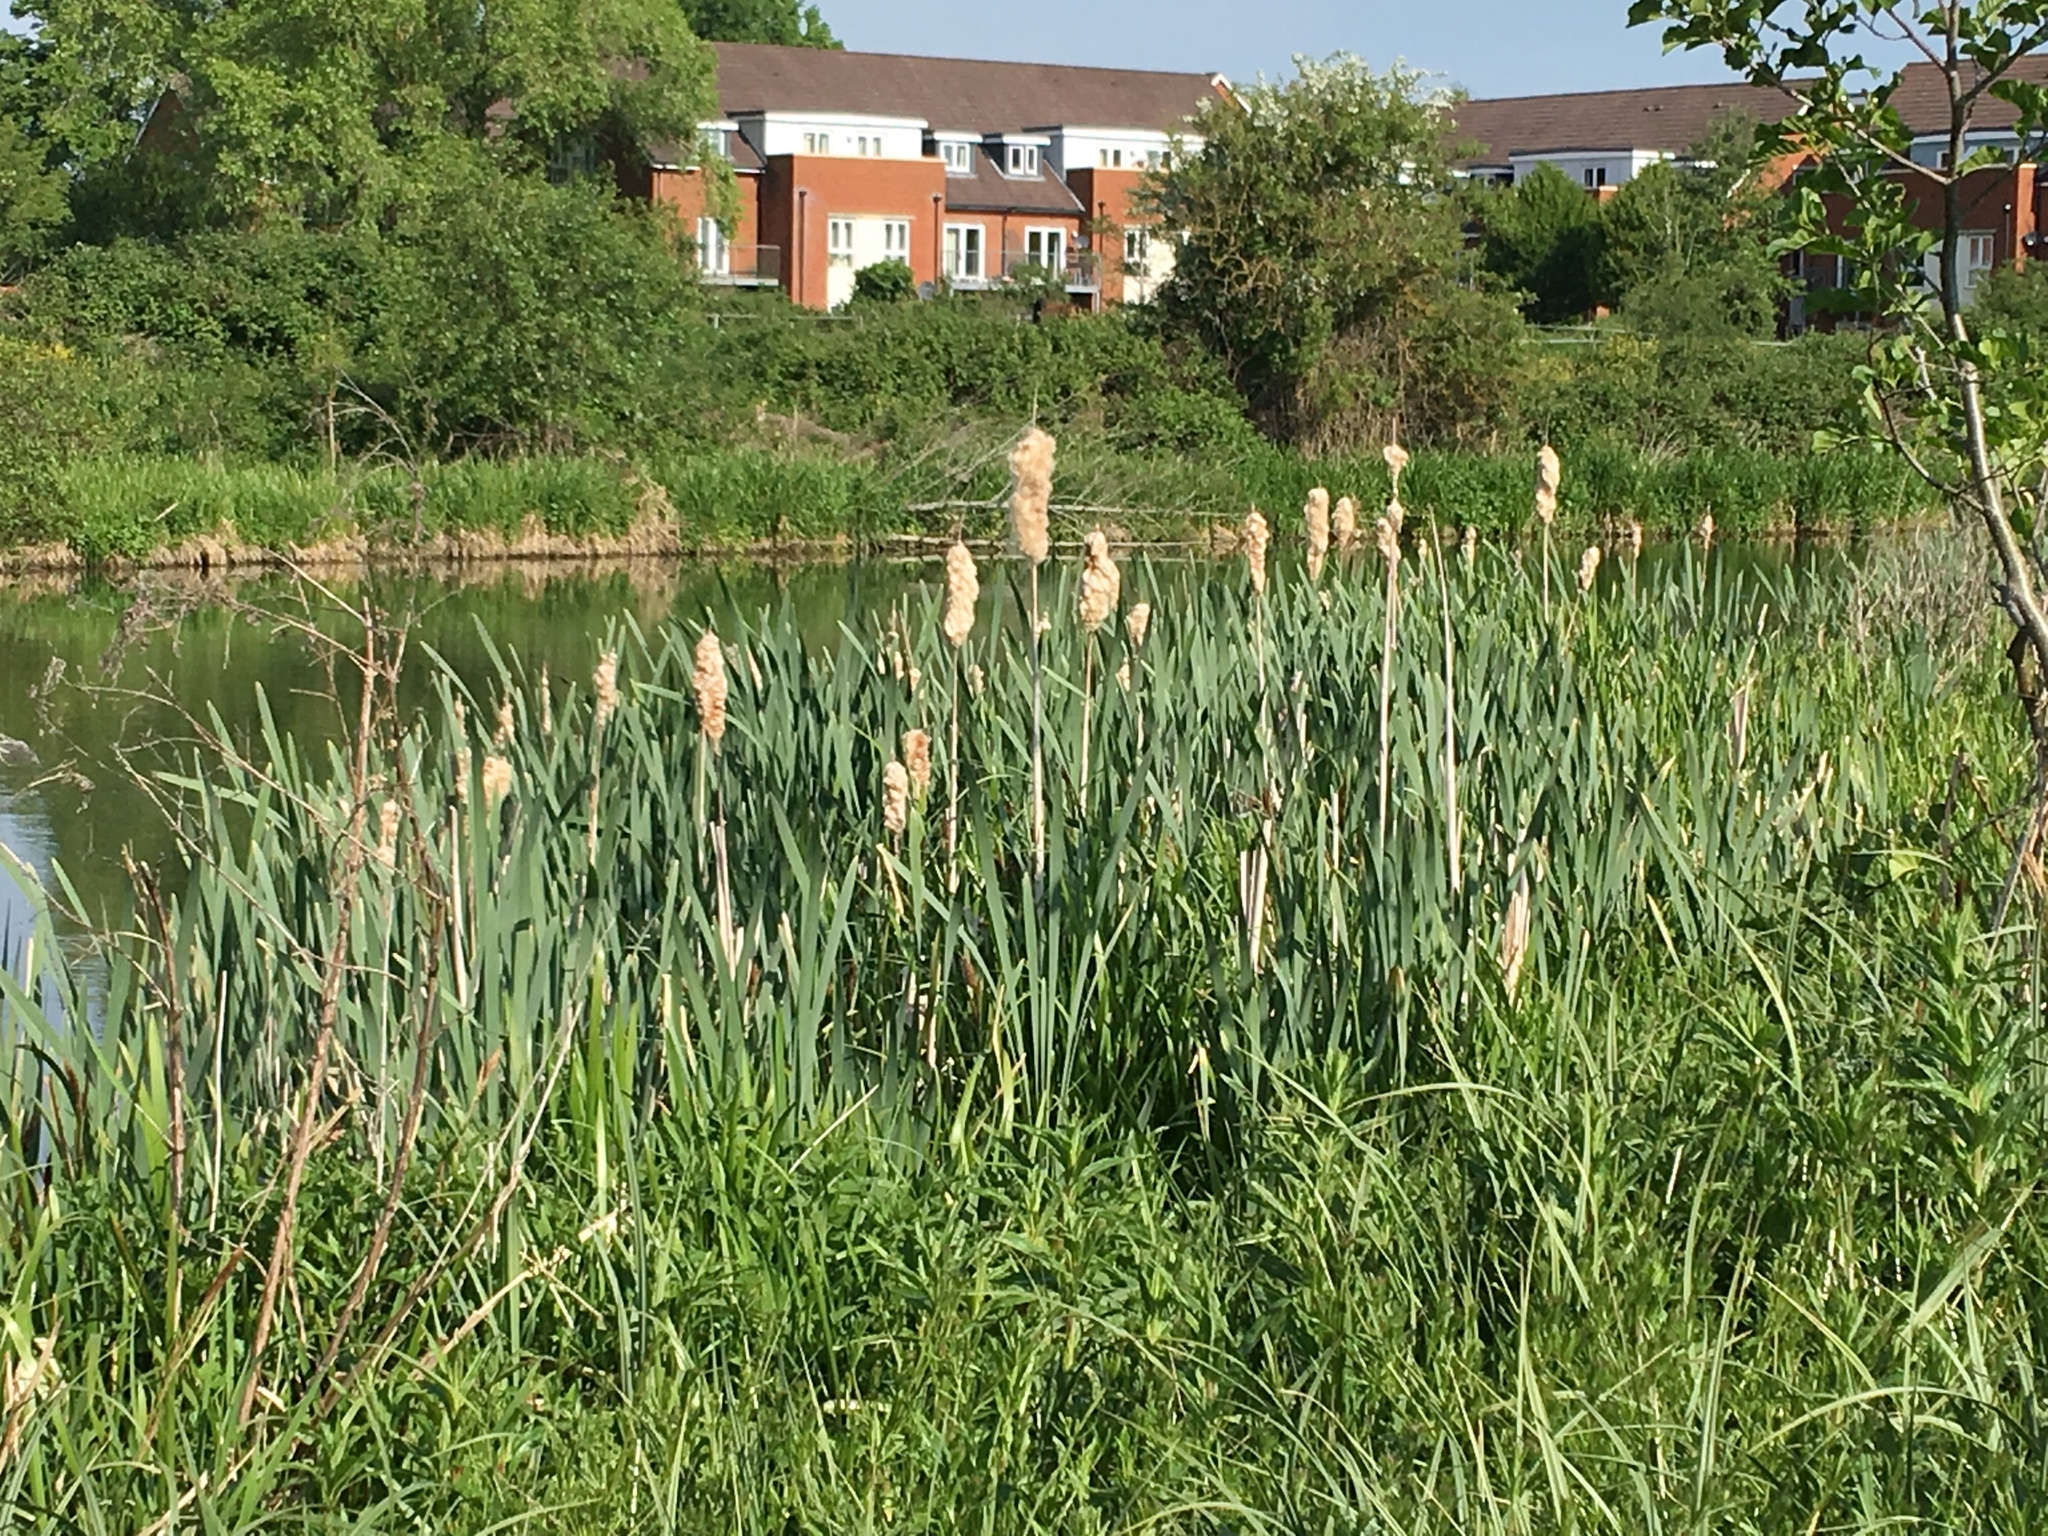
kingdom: Plantae
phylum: Tracheophyta
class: Liliopsida
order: Poales
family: Typhaceae
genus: Typha
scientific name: Typha latifolia
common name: Broadleaf cattail
